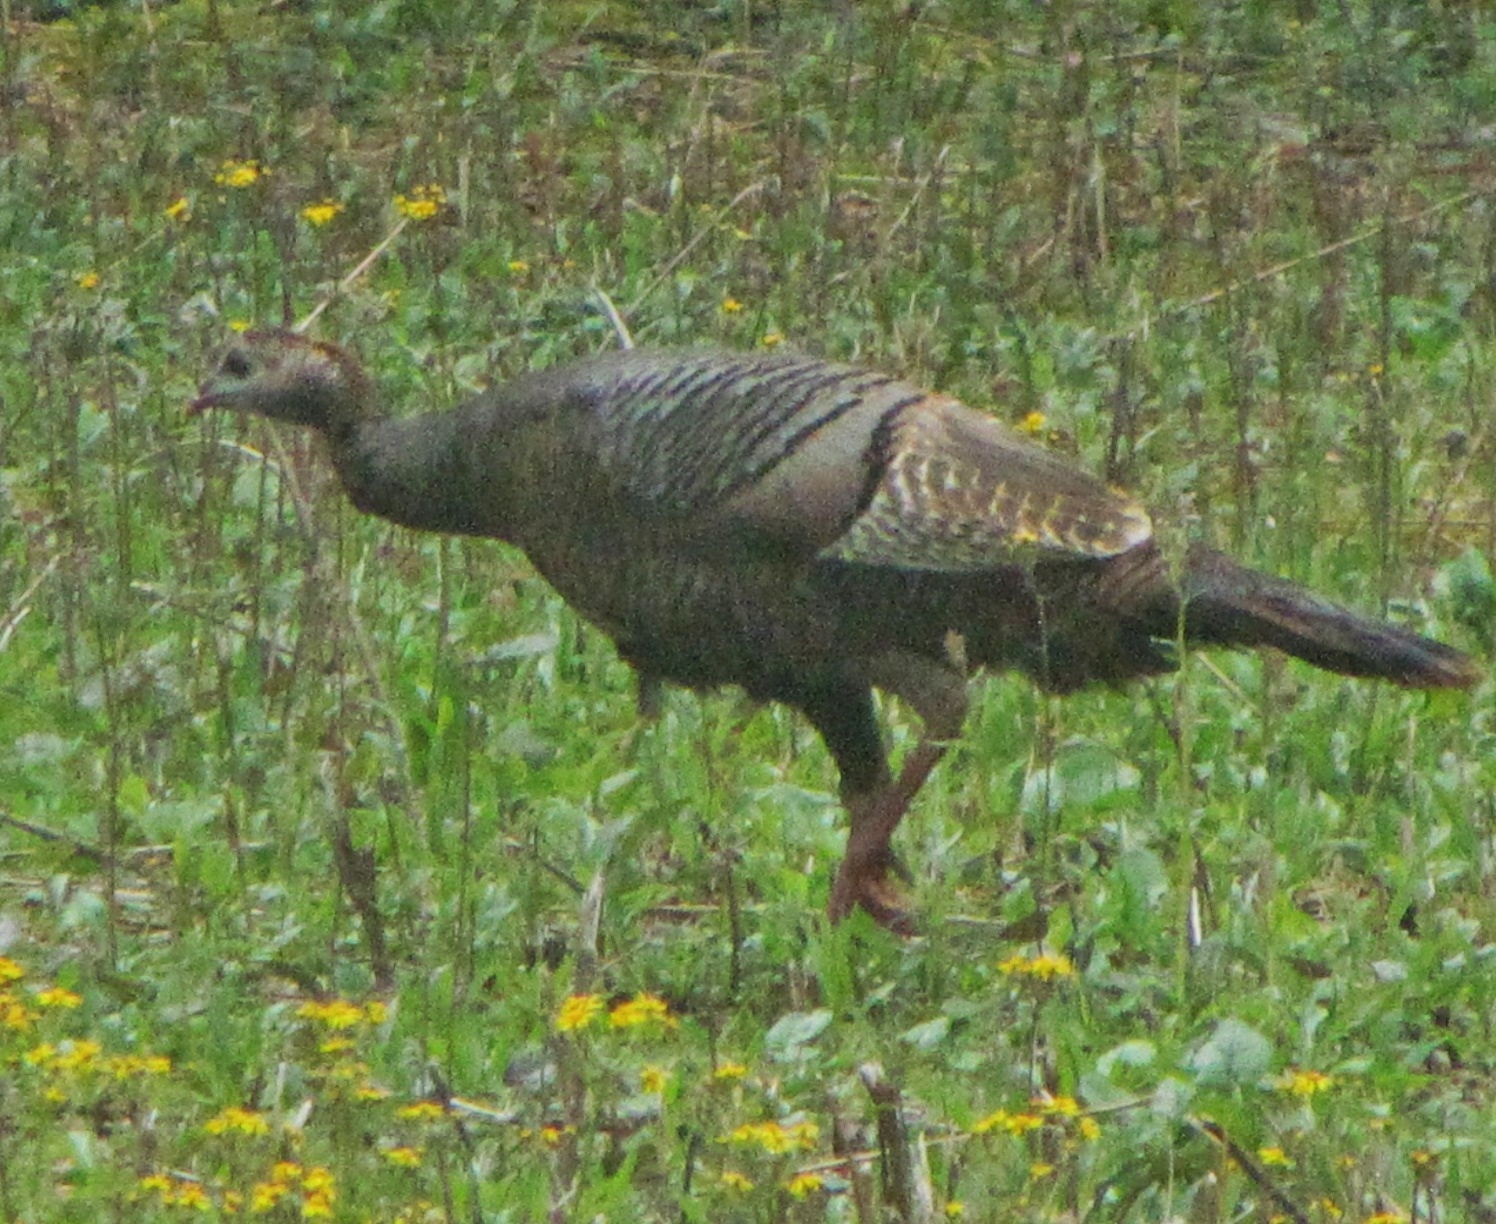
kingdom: Animalia
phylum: Chordata
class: Aves
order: Galliformes
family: Phasianidae
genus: Meleagris
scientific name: Meleagris gallopavo
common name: Wild turkey
